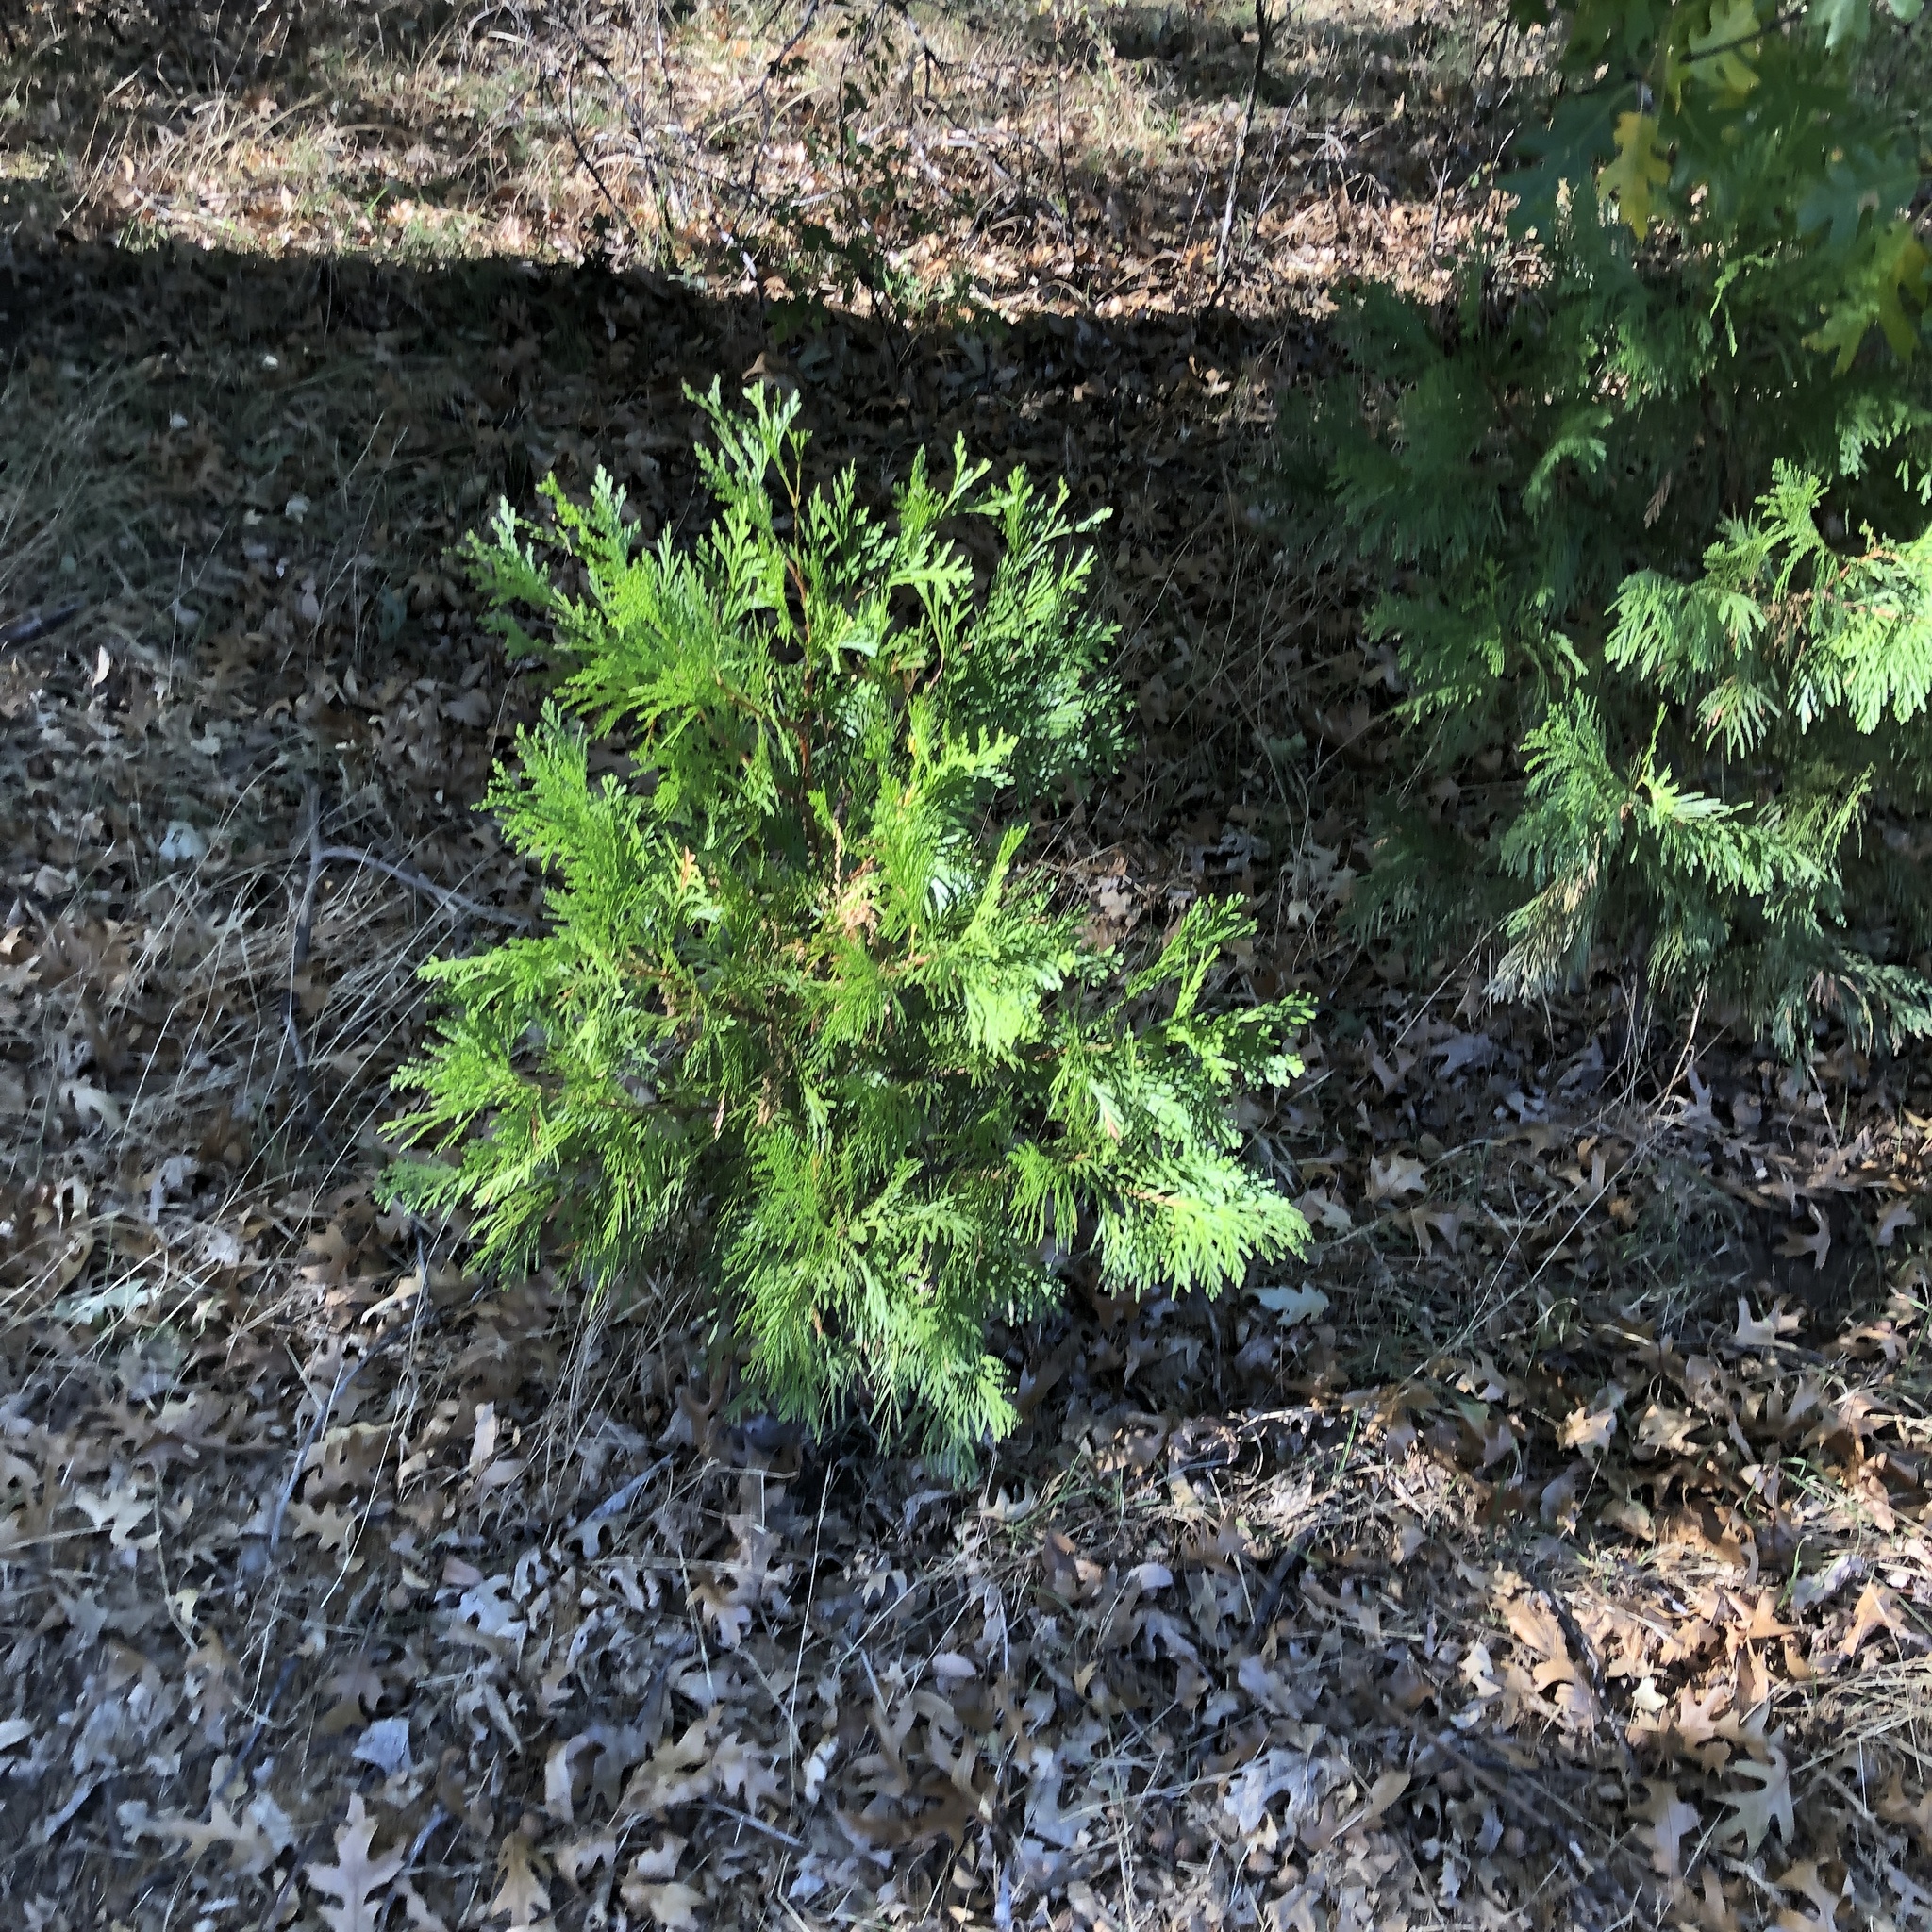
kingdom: Plantae
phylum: Tracheophyta
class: Pinopsida
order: Pinales
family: Cupressaceae
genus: Calocedrus
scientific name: Calocedrus decurrens
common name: Californian incense-cedar
